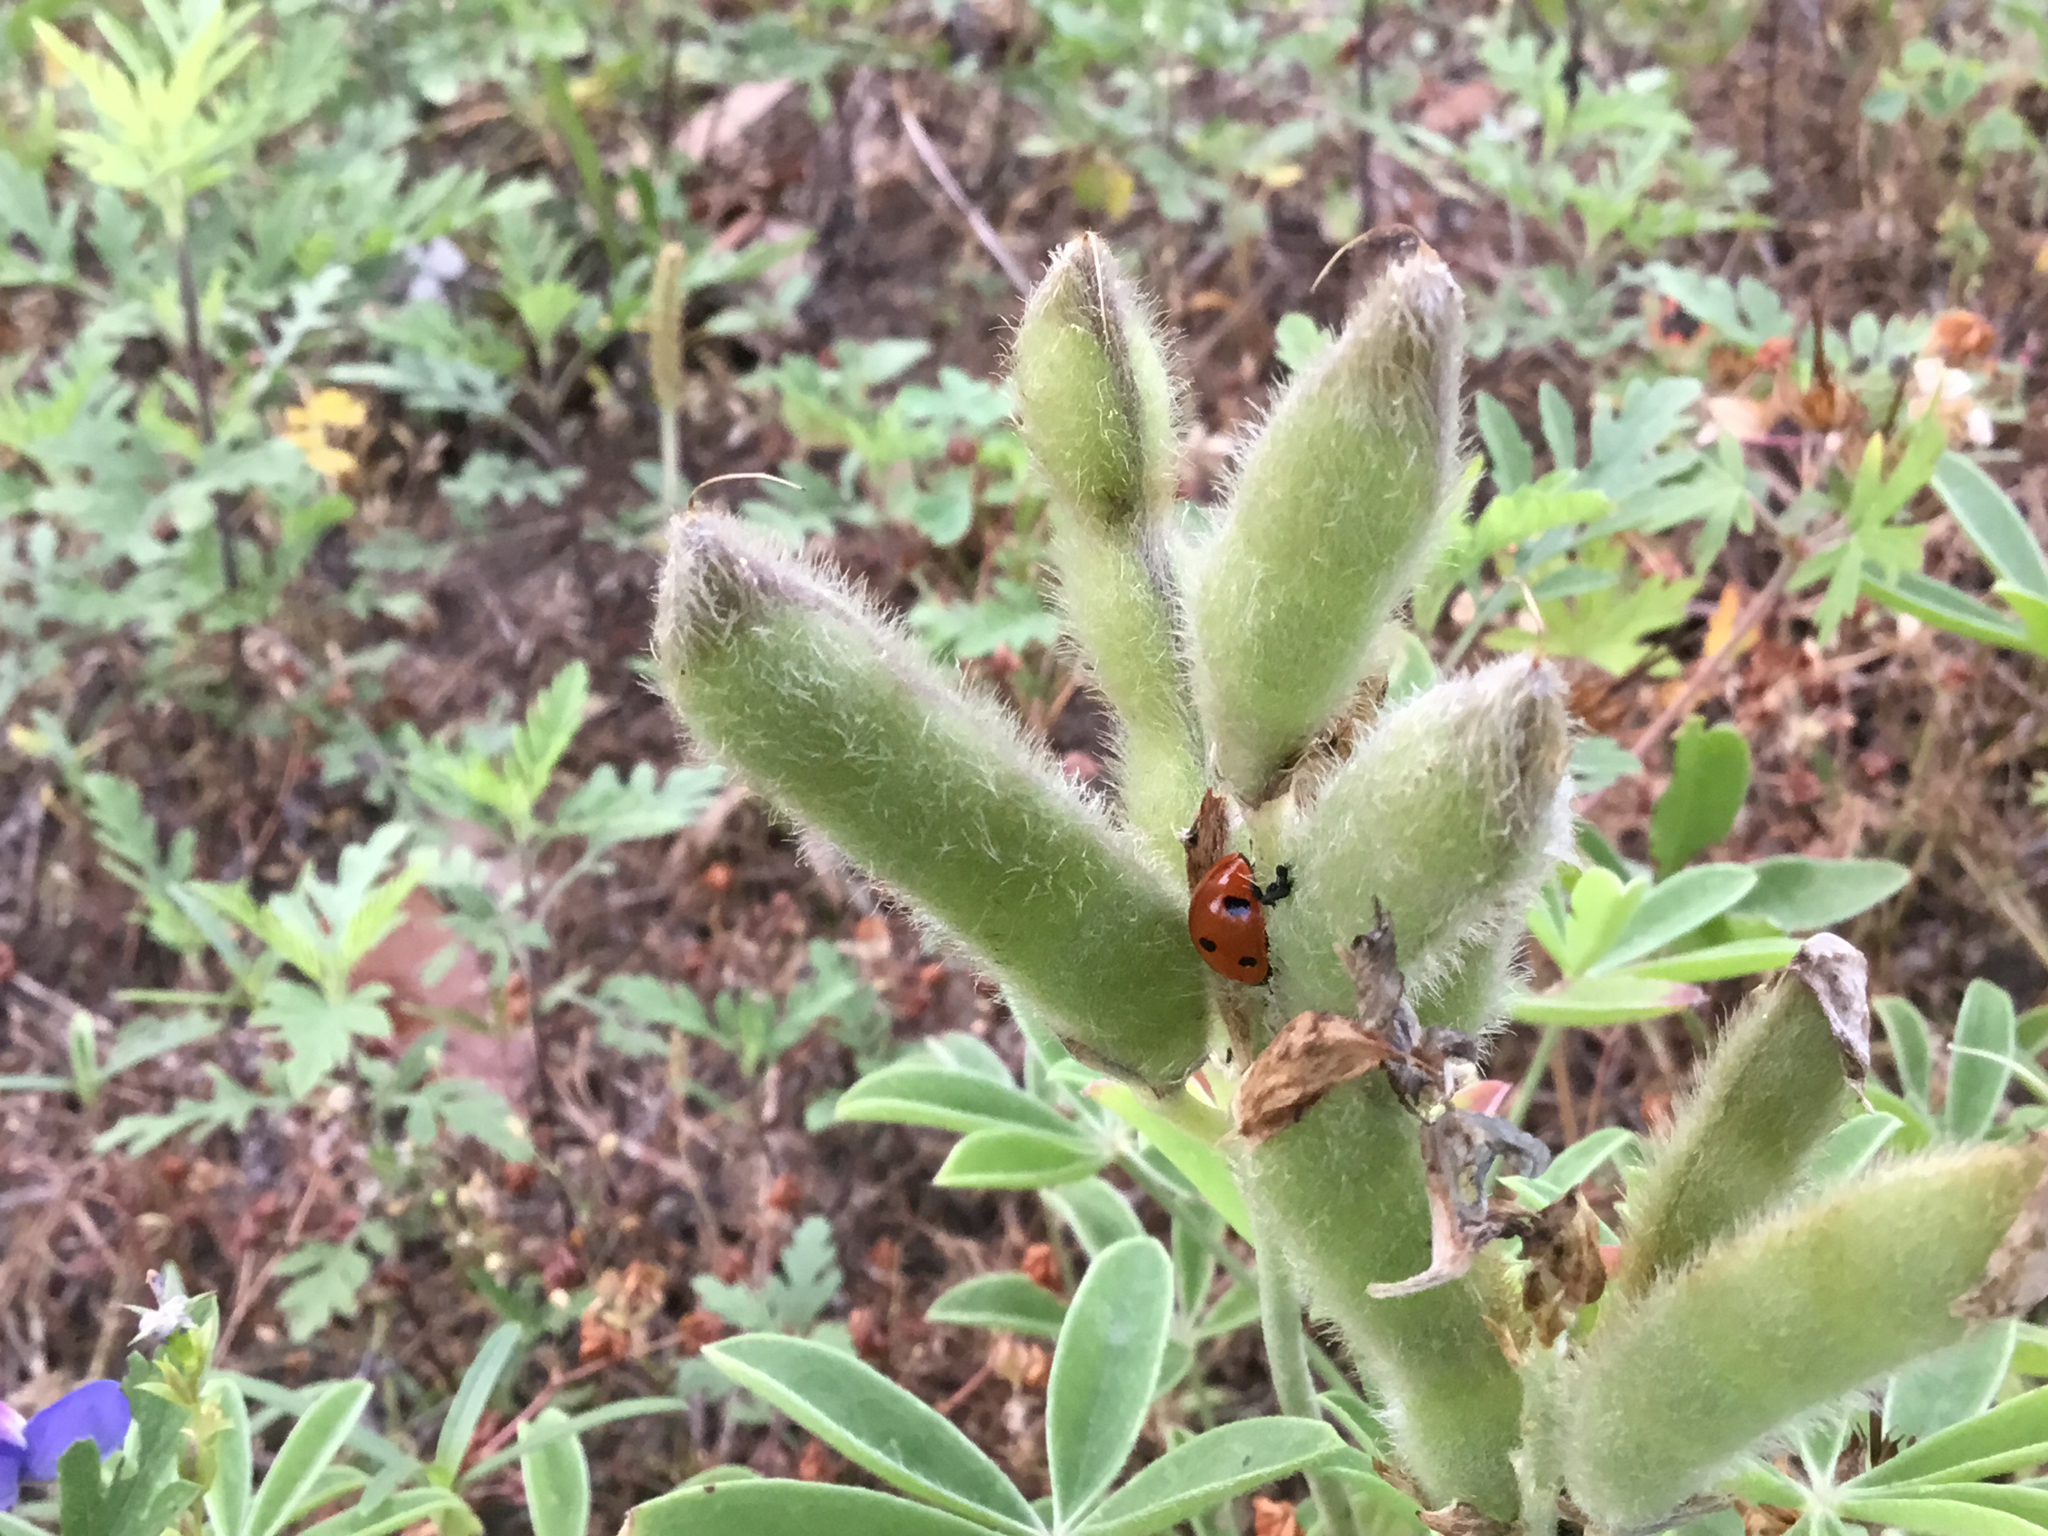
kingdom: Plantae
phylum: Tracheophyta
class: Magnoliopsida
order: Fabales
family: Fabaceae
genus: Lupinus
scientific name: Lupinus texensis
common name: Texas bluebonnet
